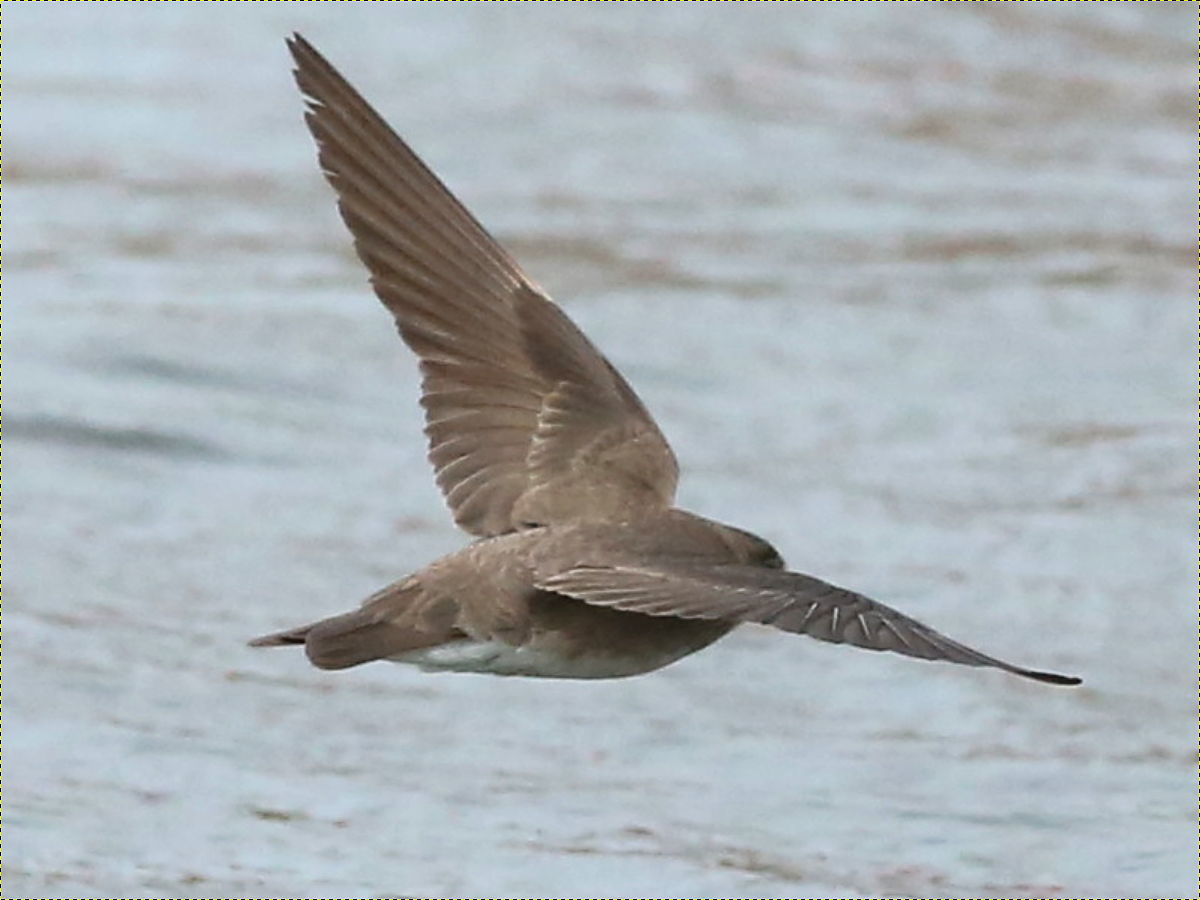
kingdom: Animalia
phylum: Chordata
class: Aves
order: Passeriformes
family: Hirundinidae
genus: Stelgidopteryx
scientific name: Stelgidopteryx serripennis
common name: Northern rough-winged swallow
